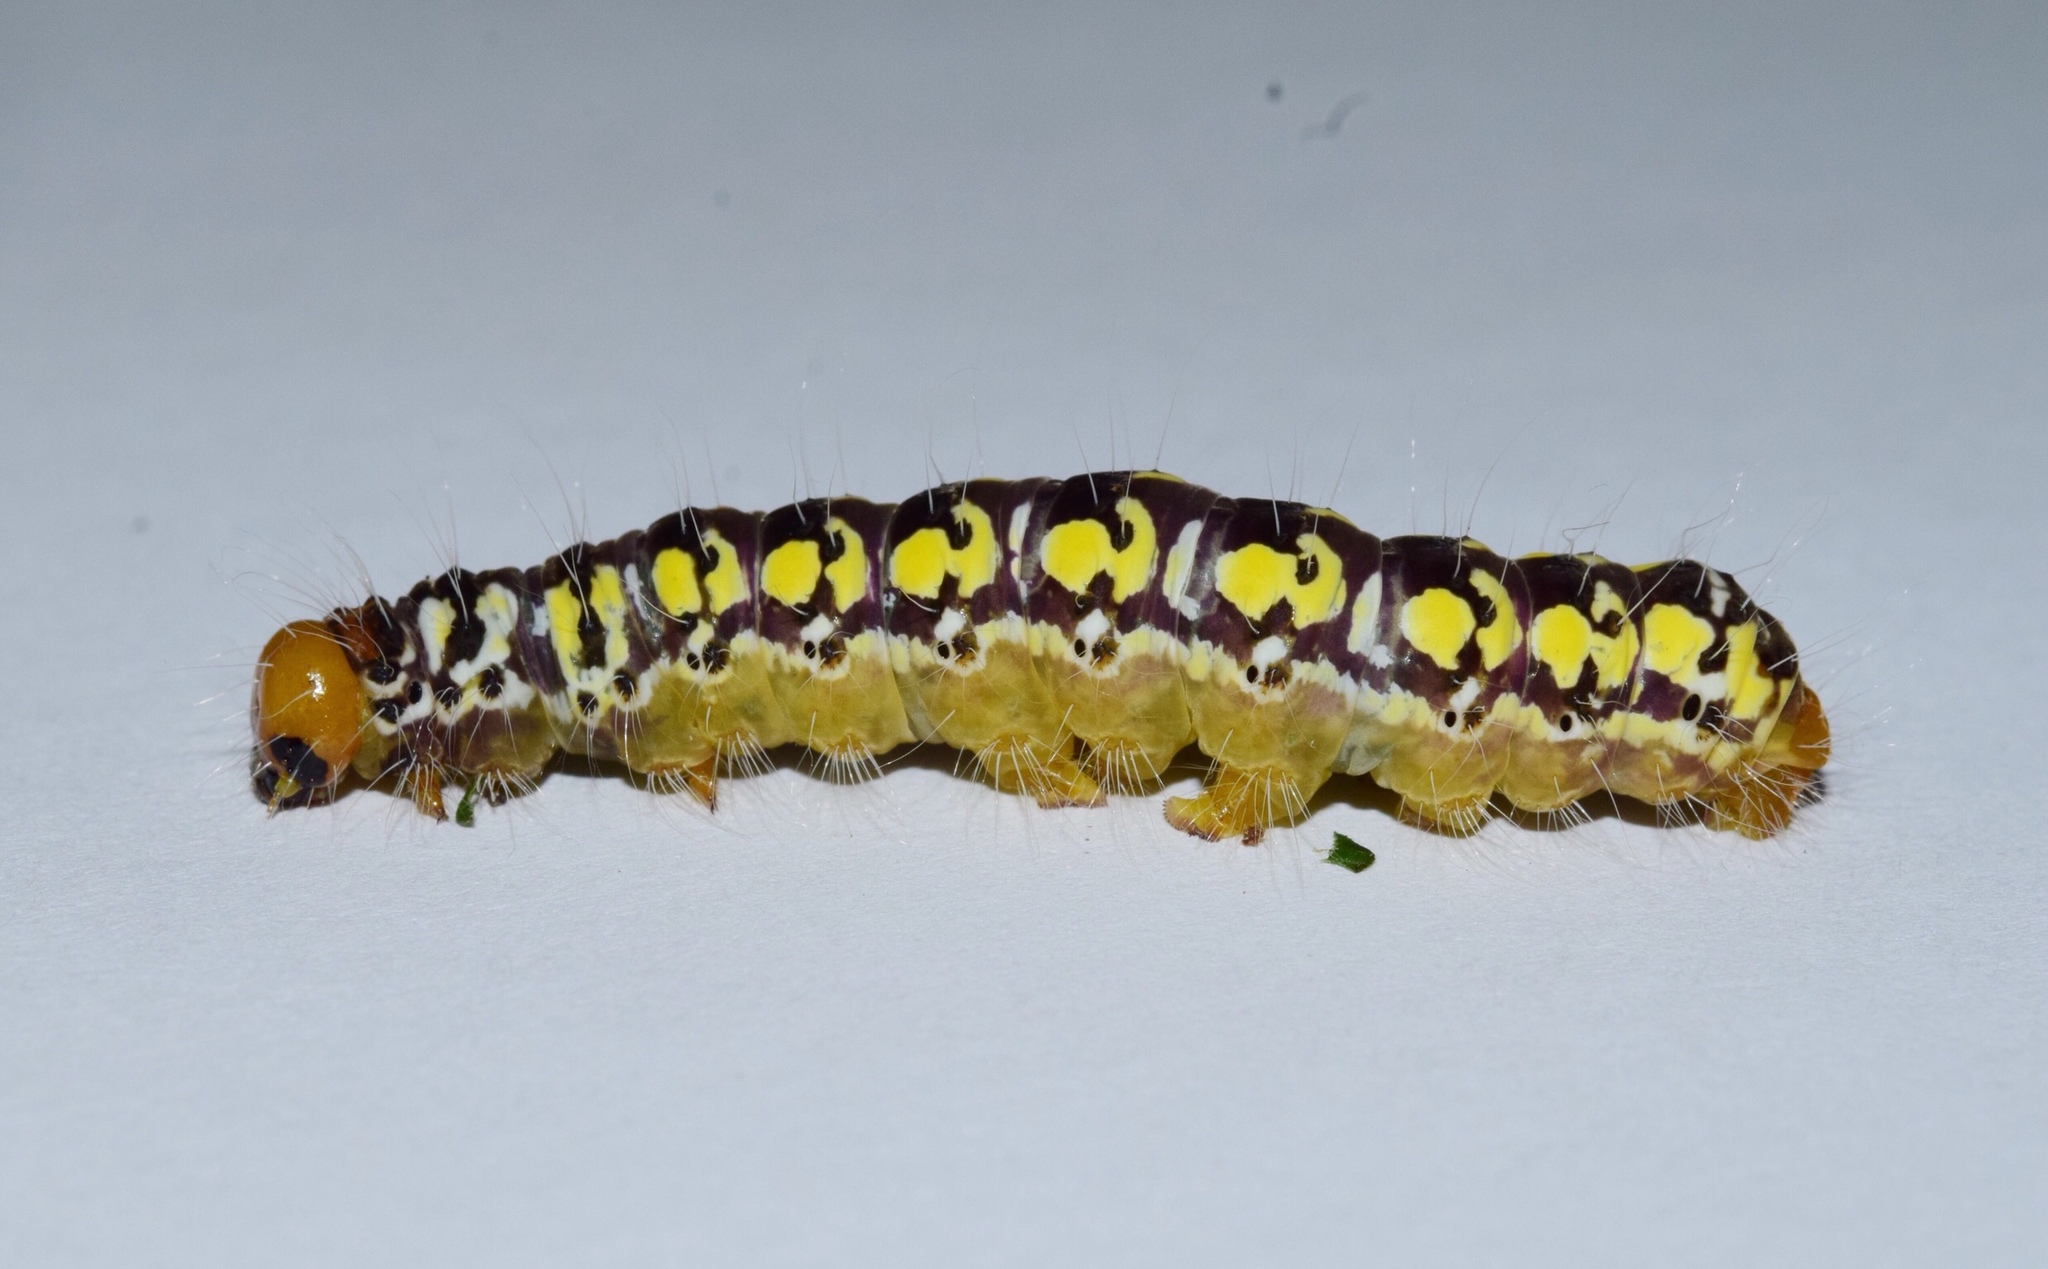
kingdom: Animalia
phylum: Arthropoda
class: Insecta
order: Lepidoptera
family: Noctuidae
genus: Nyodes
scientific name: Nyodes acatharta
